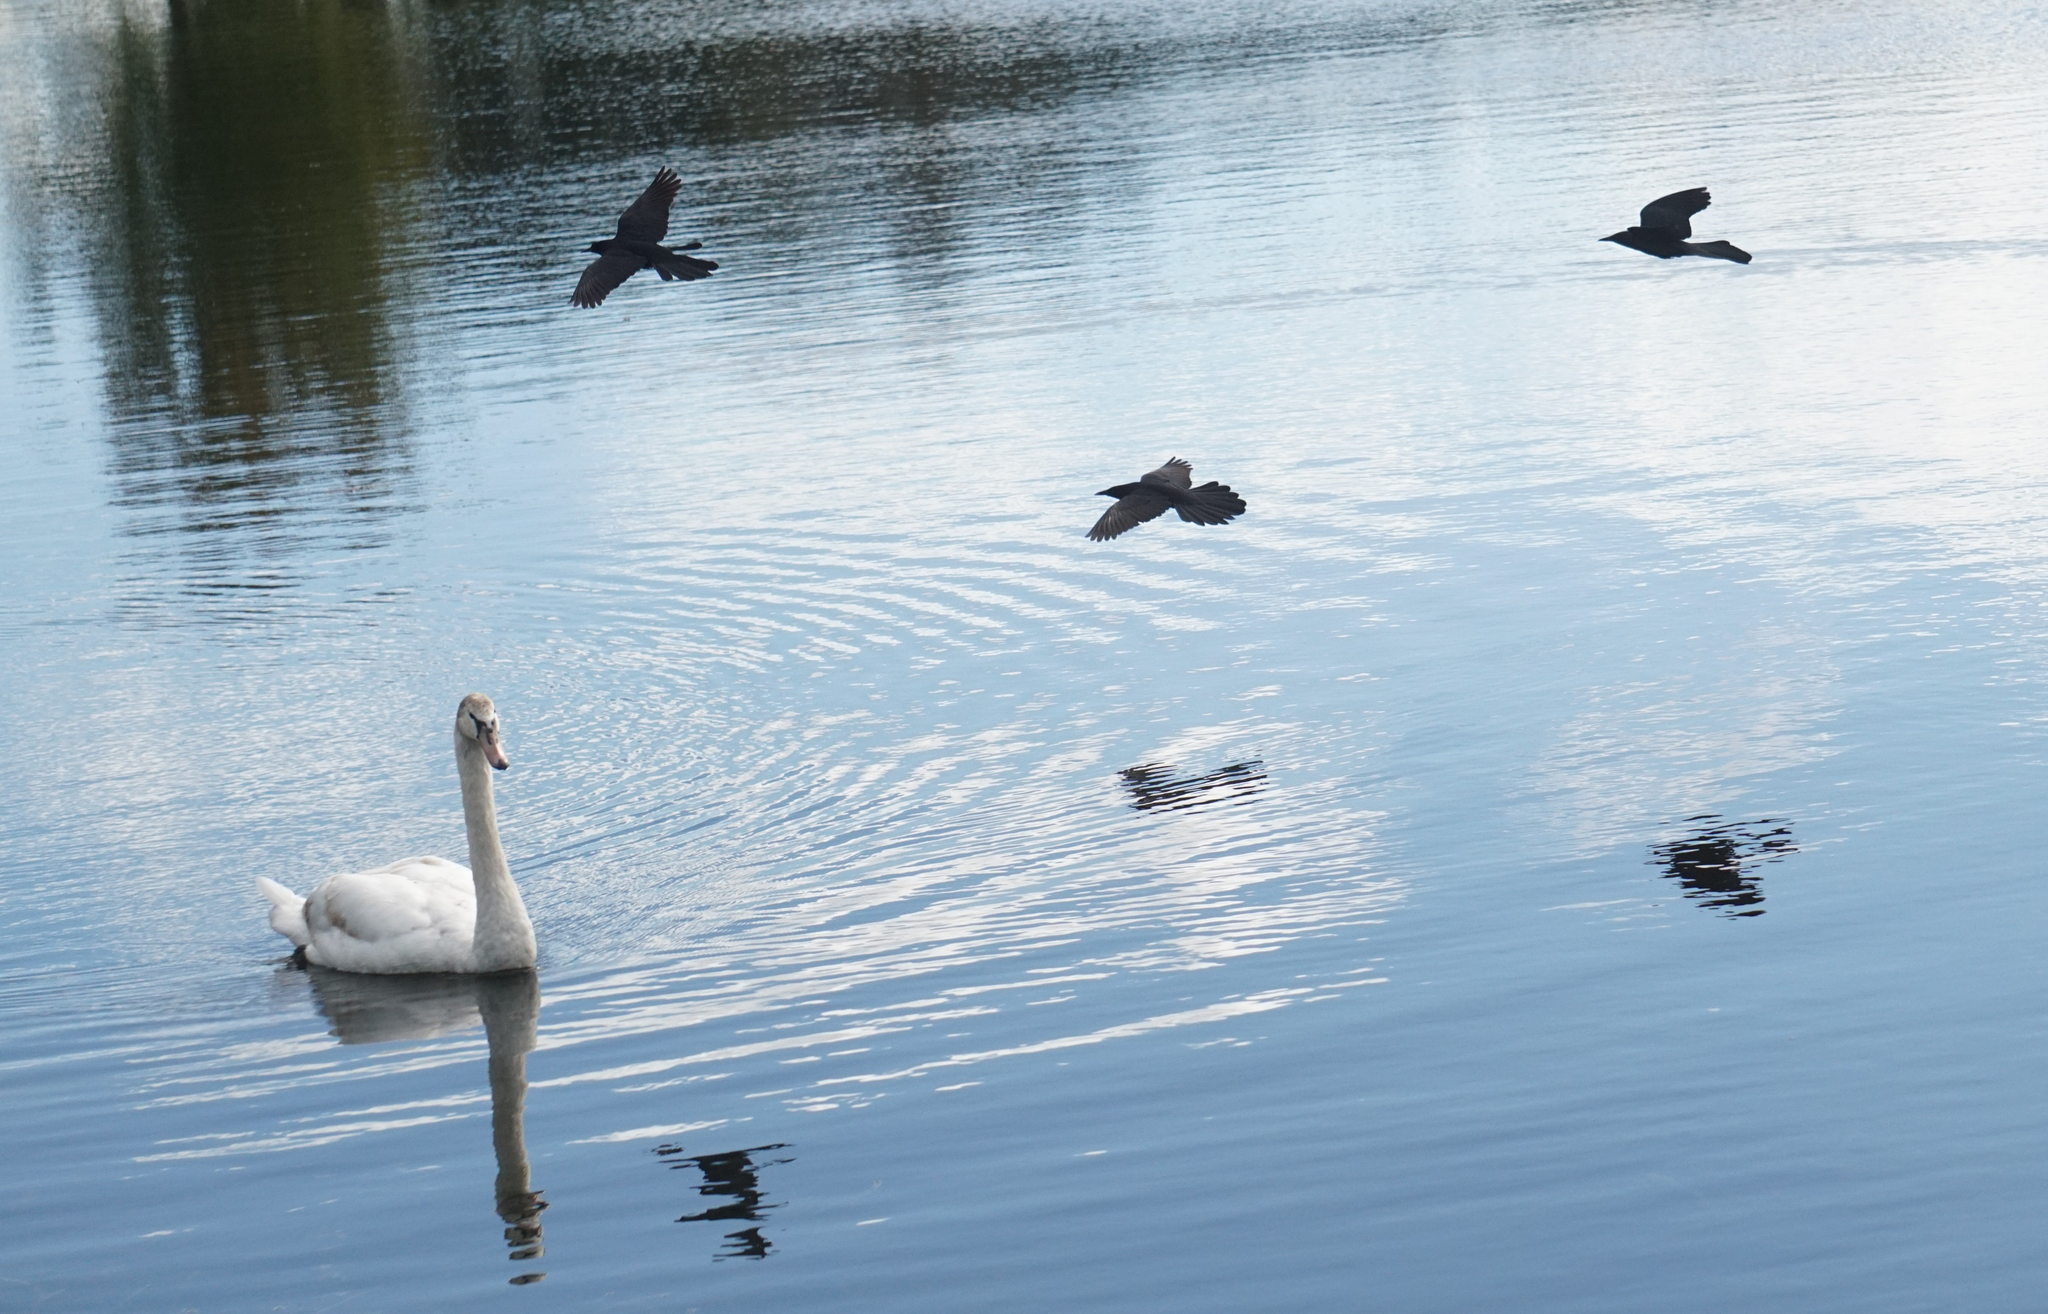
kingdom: Animalia
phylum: Chordata
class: Aves
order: Anseriformes
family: Anatidae
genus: Cygnus
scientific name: Cygnus olor
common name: Mute swan
